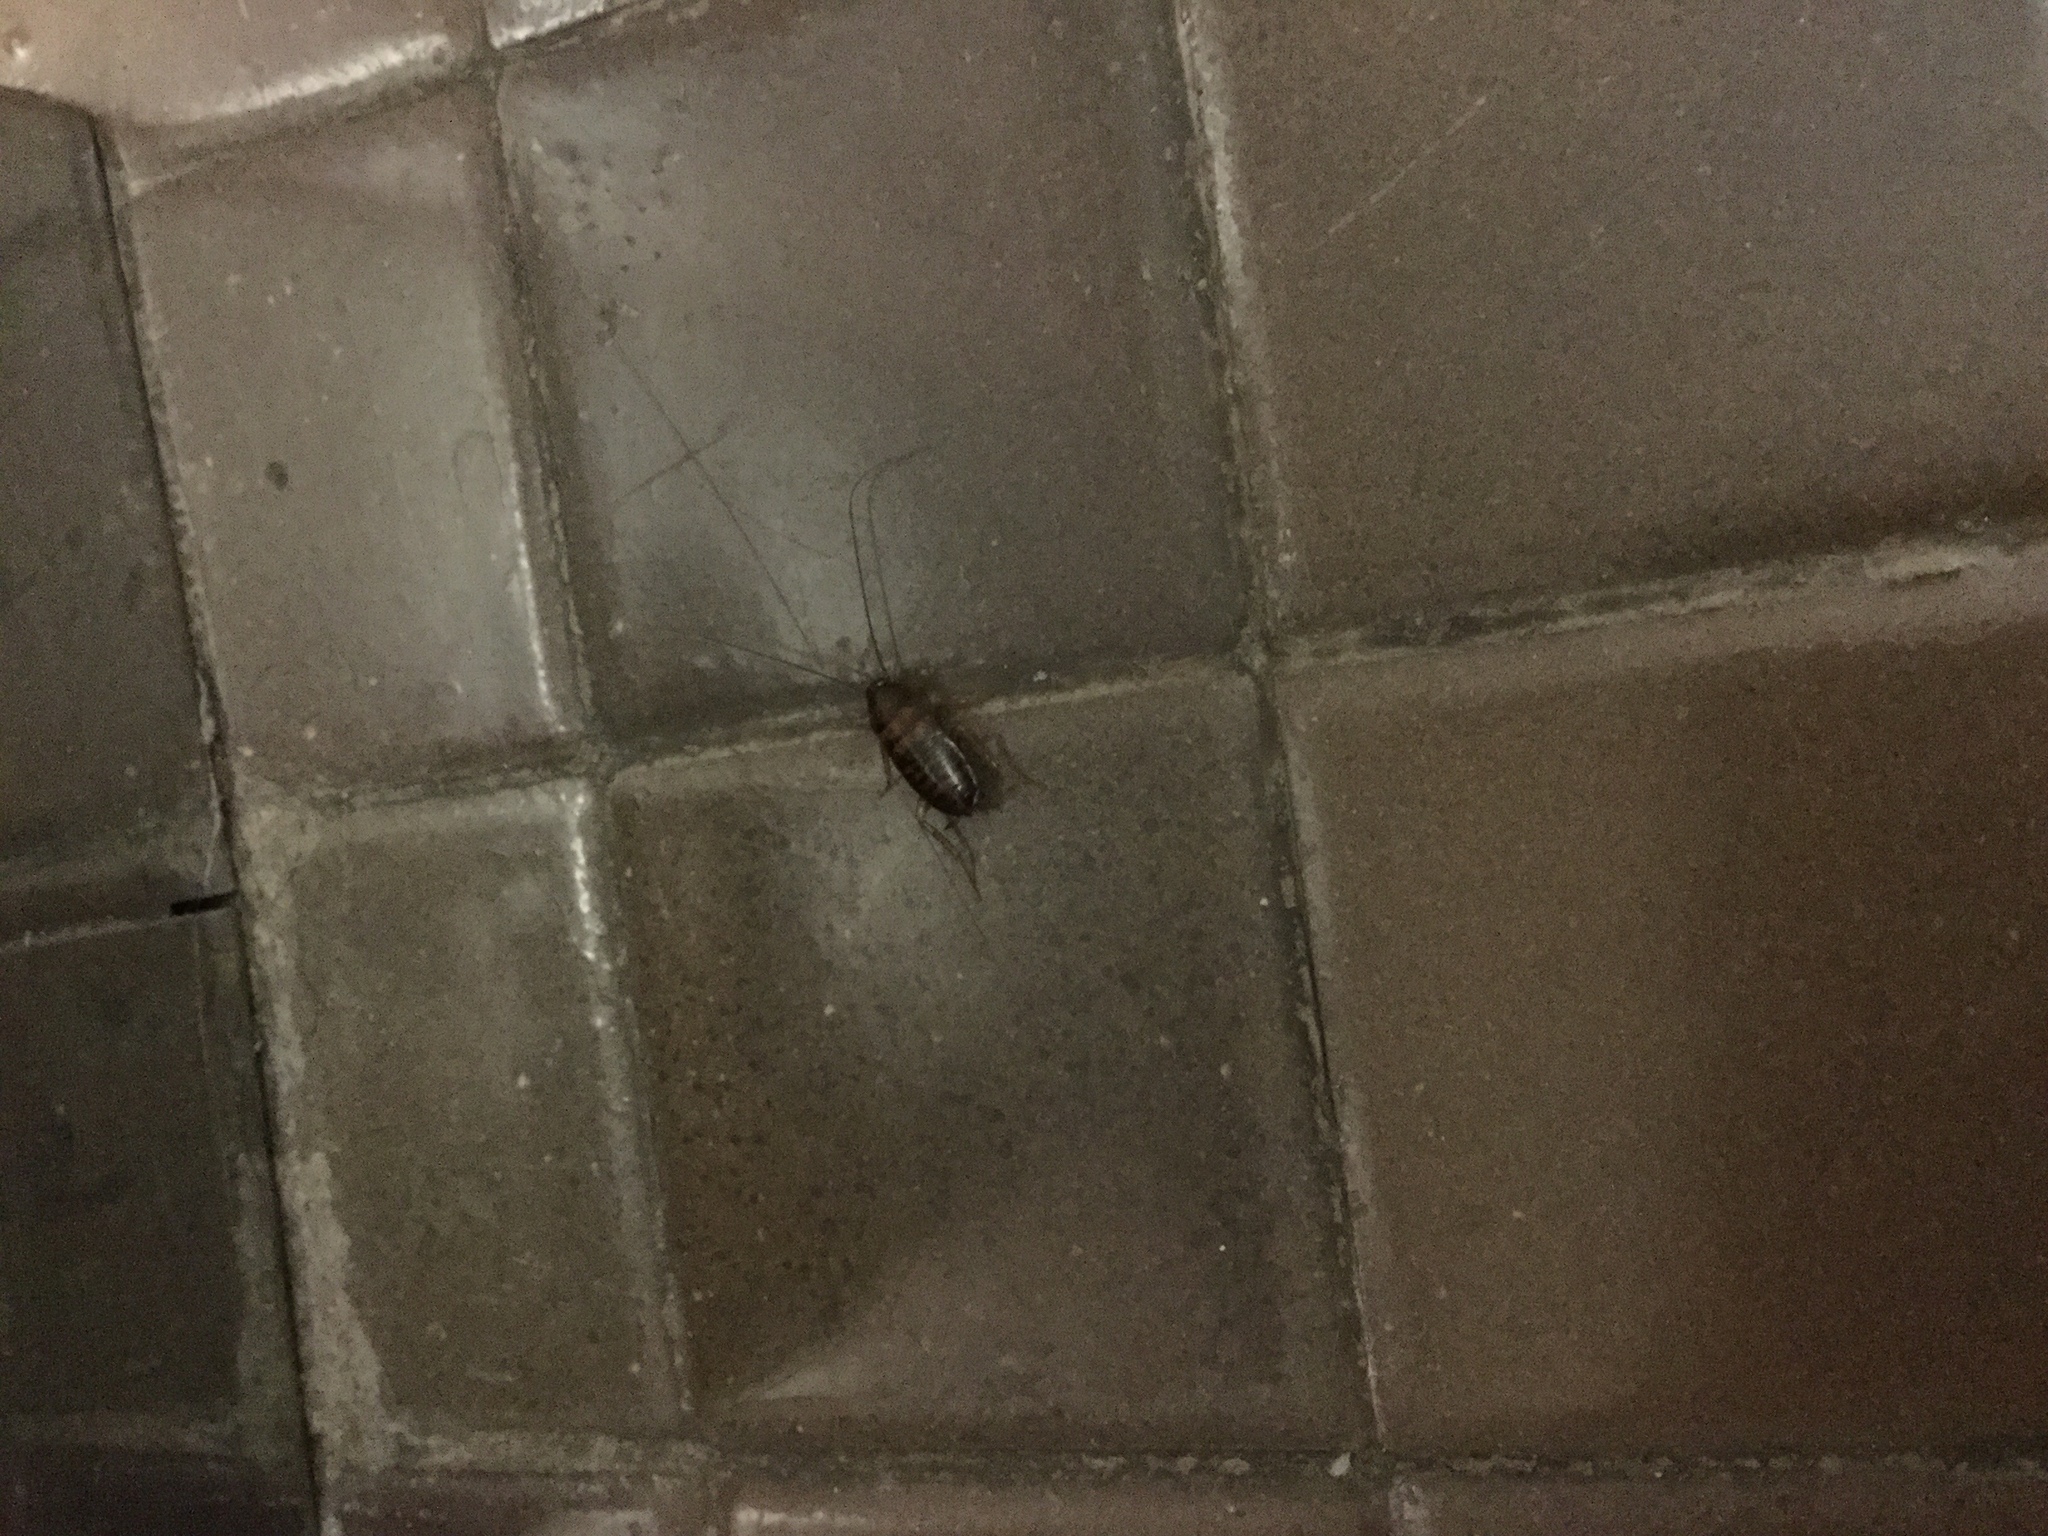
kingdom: Animalia
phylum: Arthropoda
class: Insecta
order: Blattodea
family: Blattidae
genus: Periplaneta
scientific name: Periplaneta americana
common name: American cockroach
